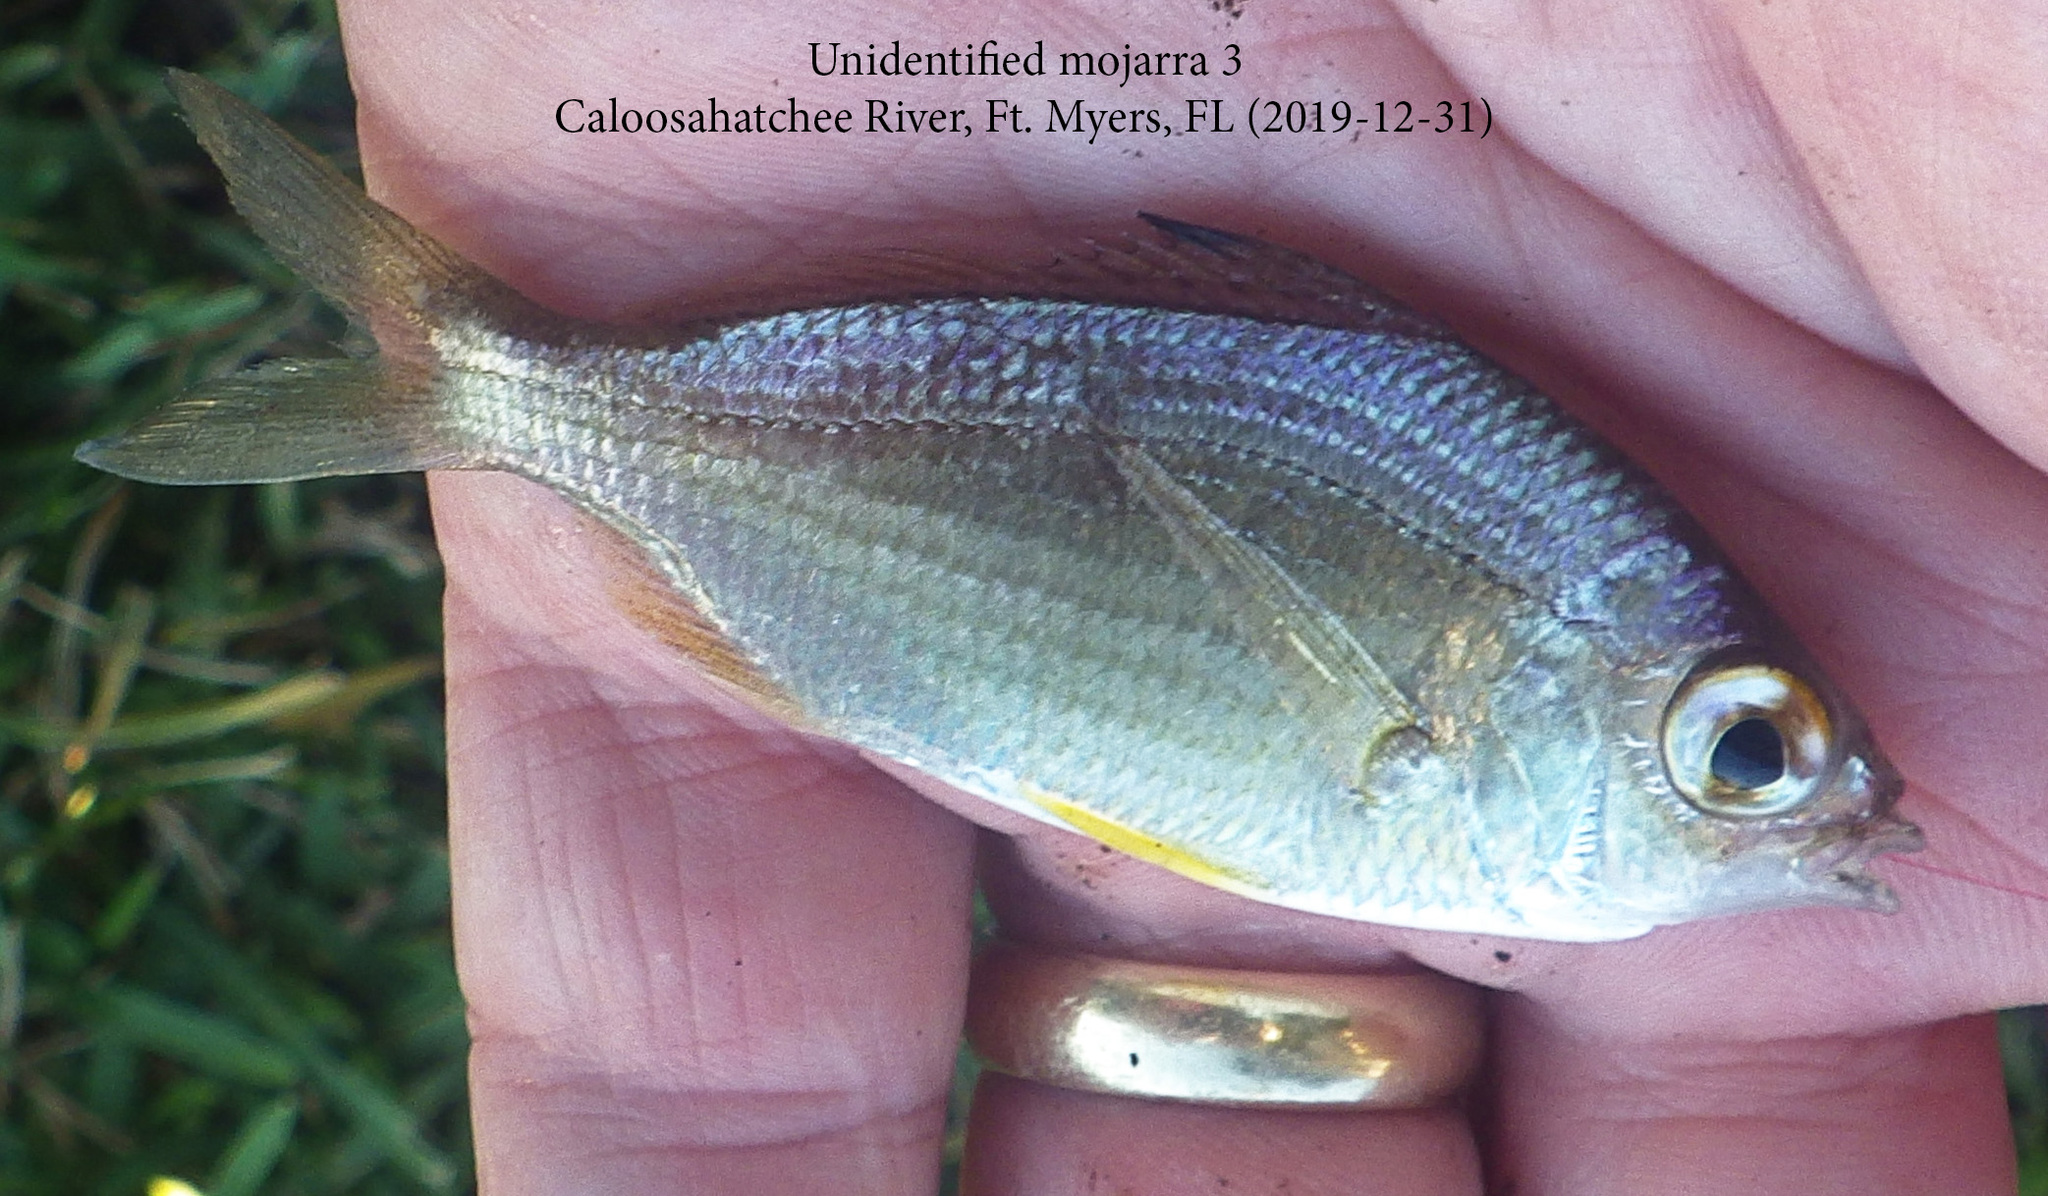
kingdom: Animalia
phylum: Chordata
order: Perciformes
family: Gerreidae
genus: Eucinostomus
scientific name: Eucinostomus gula
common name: Silver jenny
